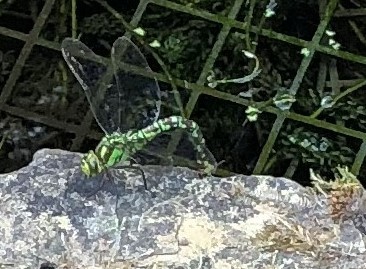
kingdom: Animalia
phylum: Arthropoda
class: Insecta
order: Odonata
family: Aeshnidae
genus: Aeshna
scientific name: Aeshna cyanea
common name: Southern hawker
